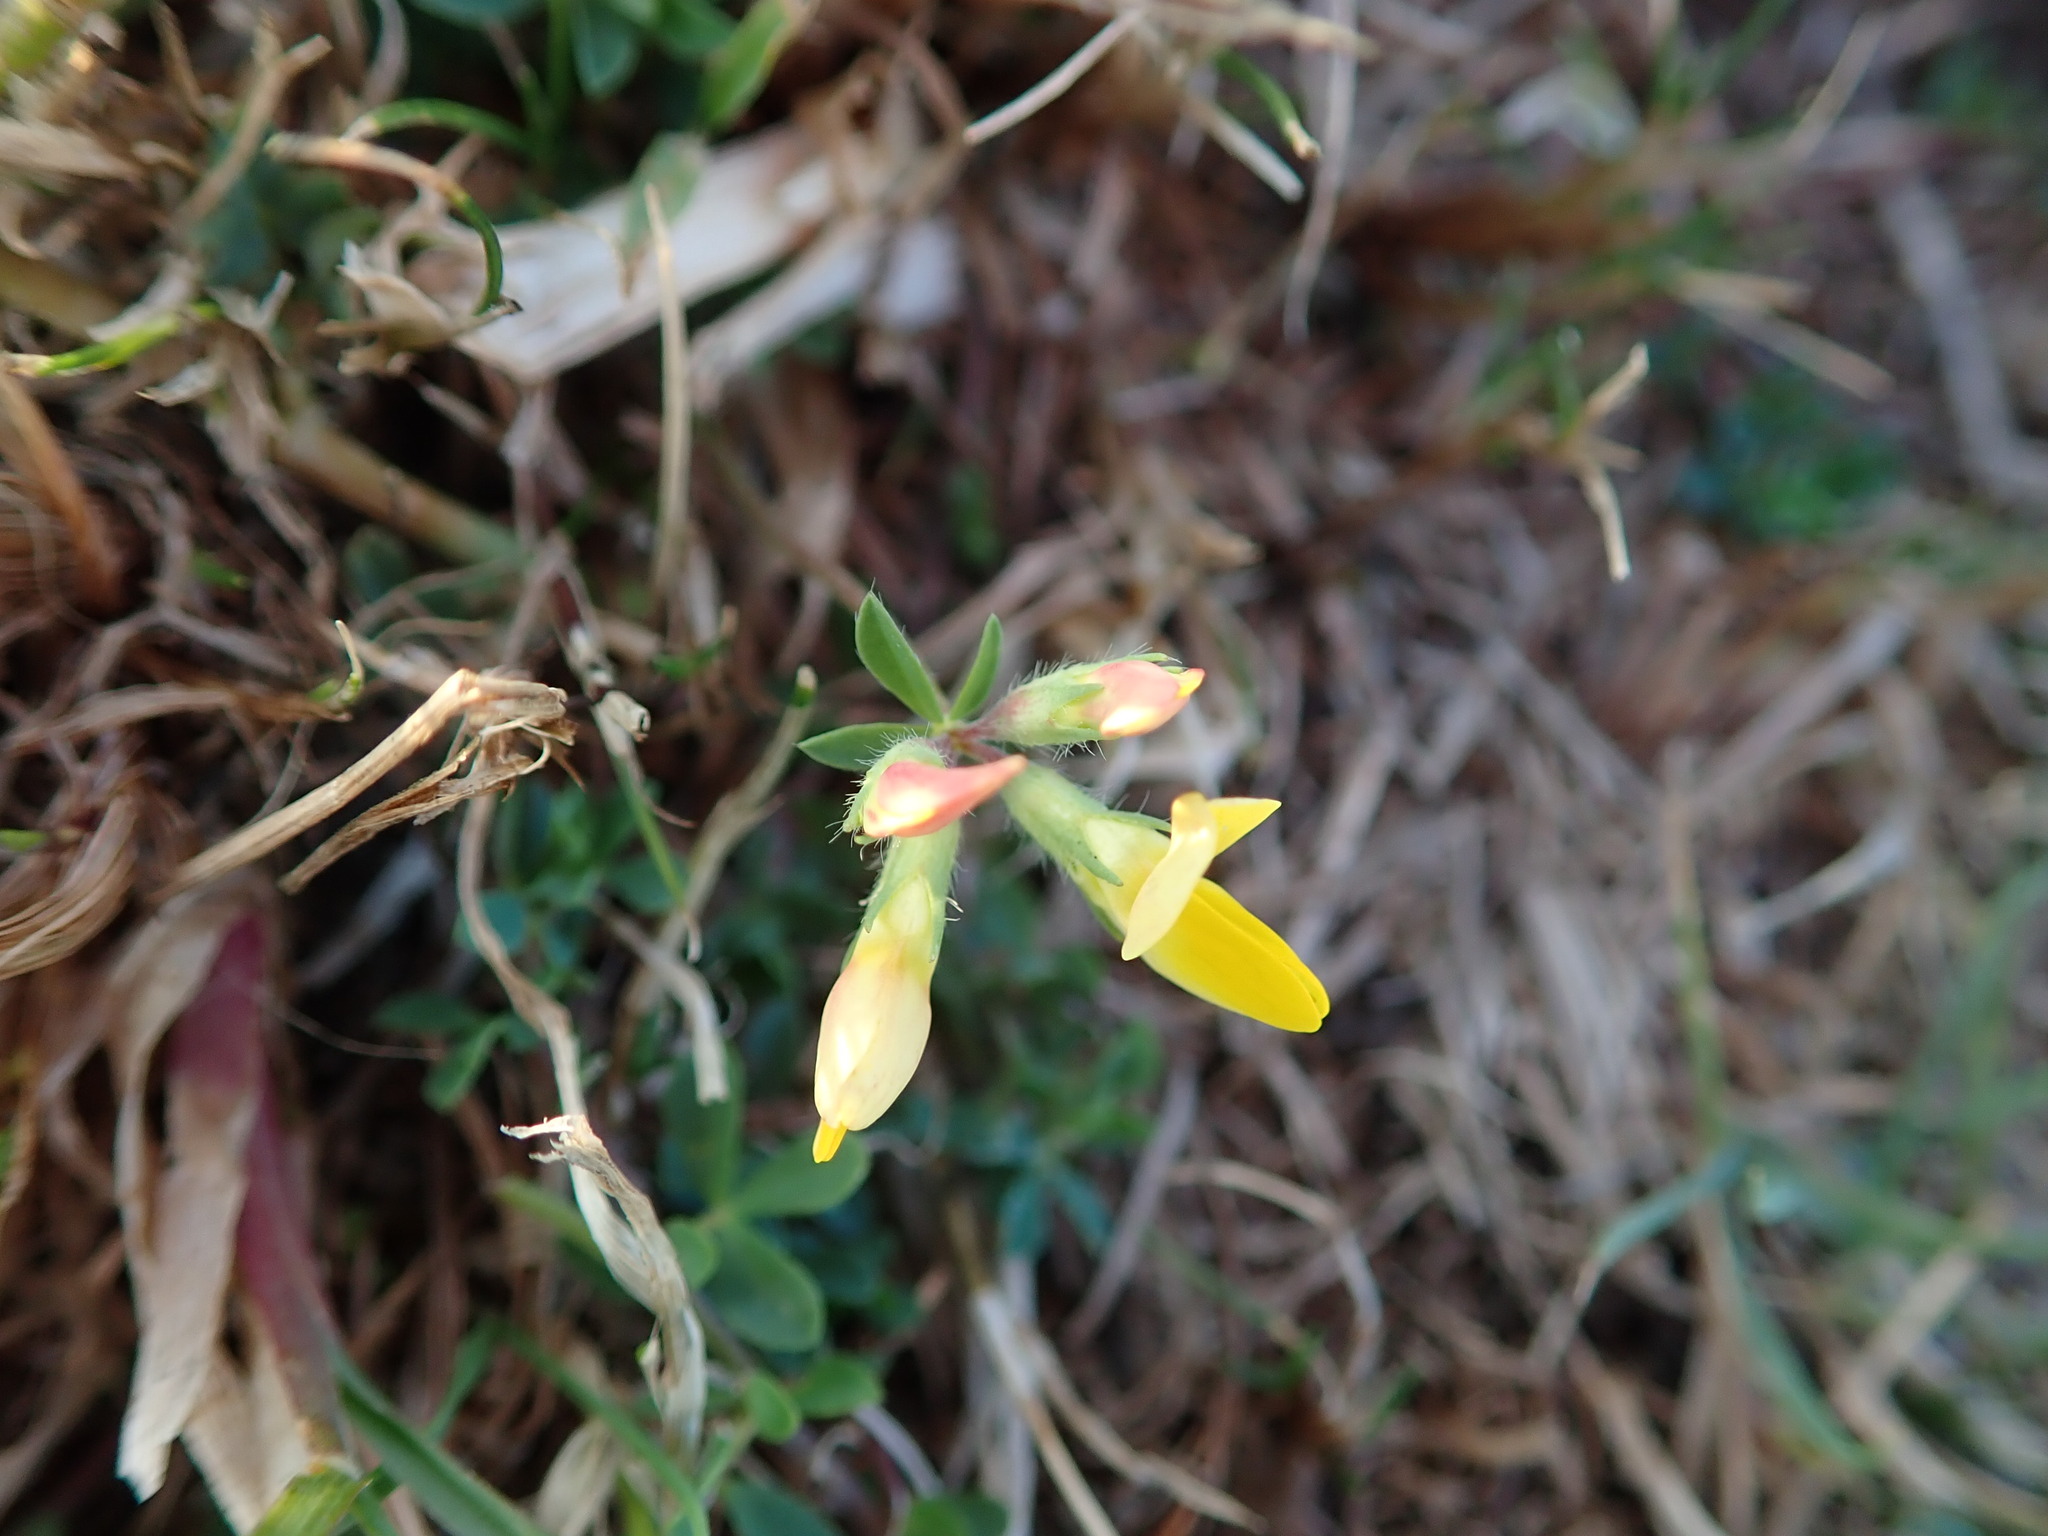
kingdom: Plantae
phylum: Tracheophyta
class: Magnoliopsida
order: Fabales
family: Fabaceae
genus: Lotus
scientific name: Lotus corniculatus
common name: Common bird's-foot-trefoil
